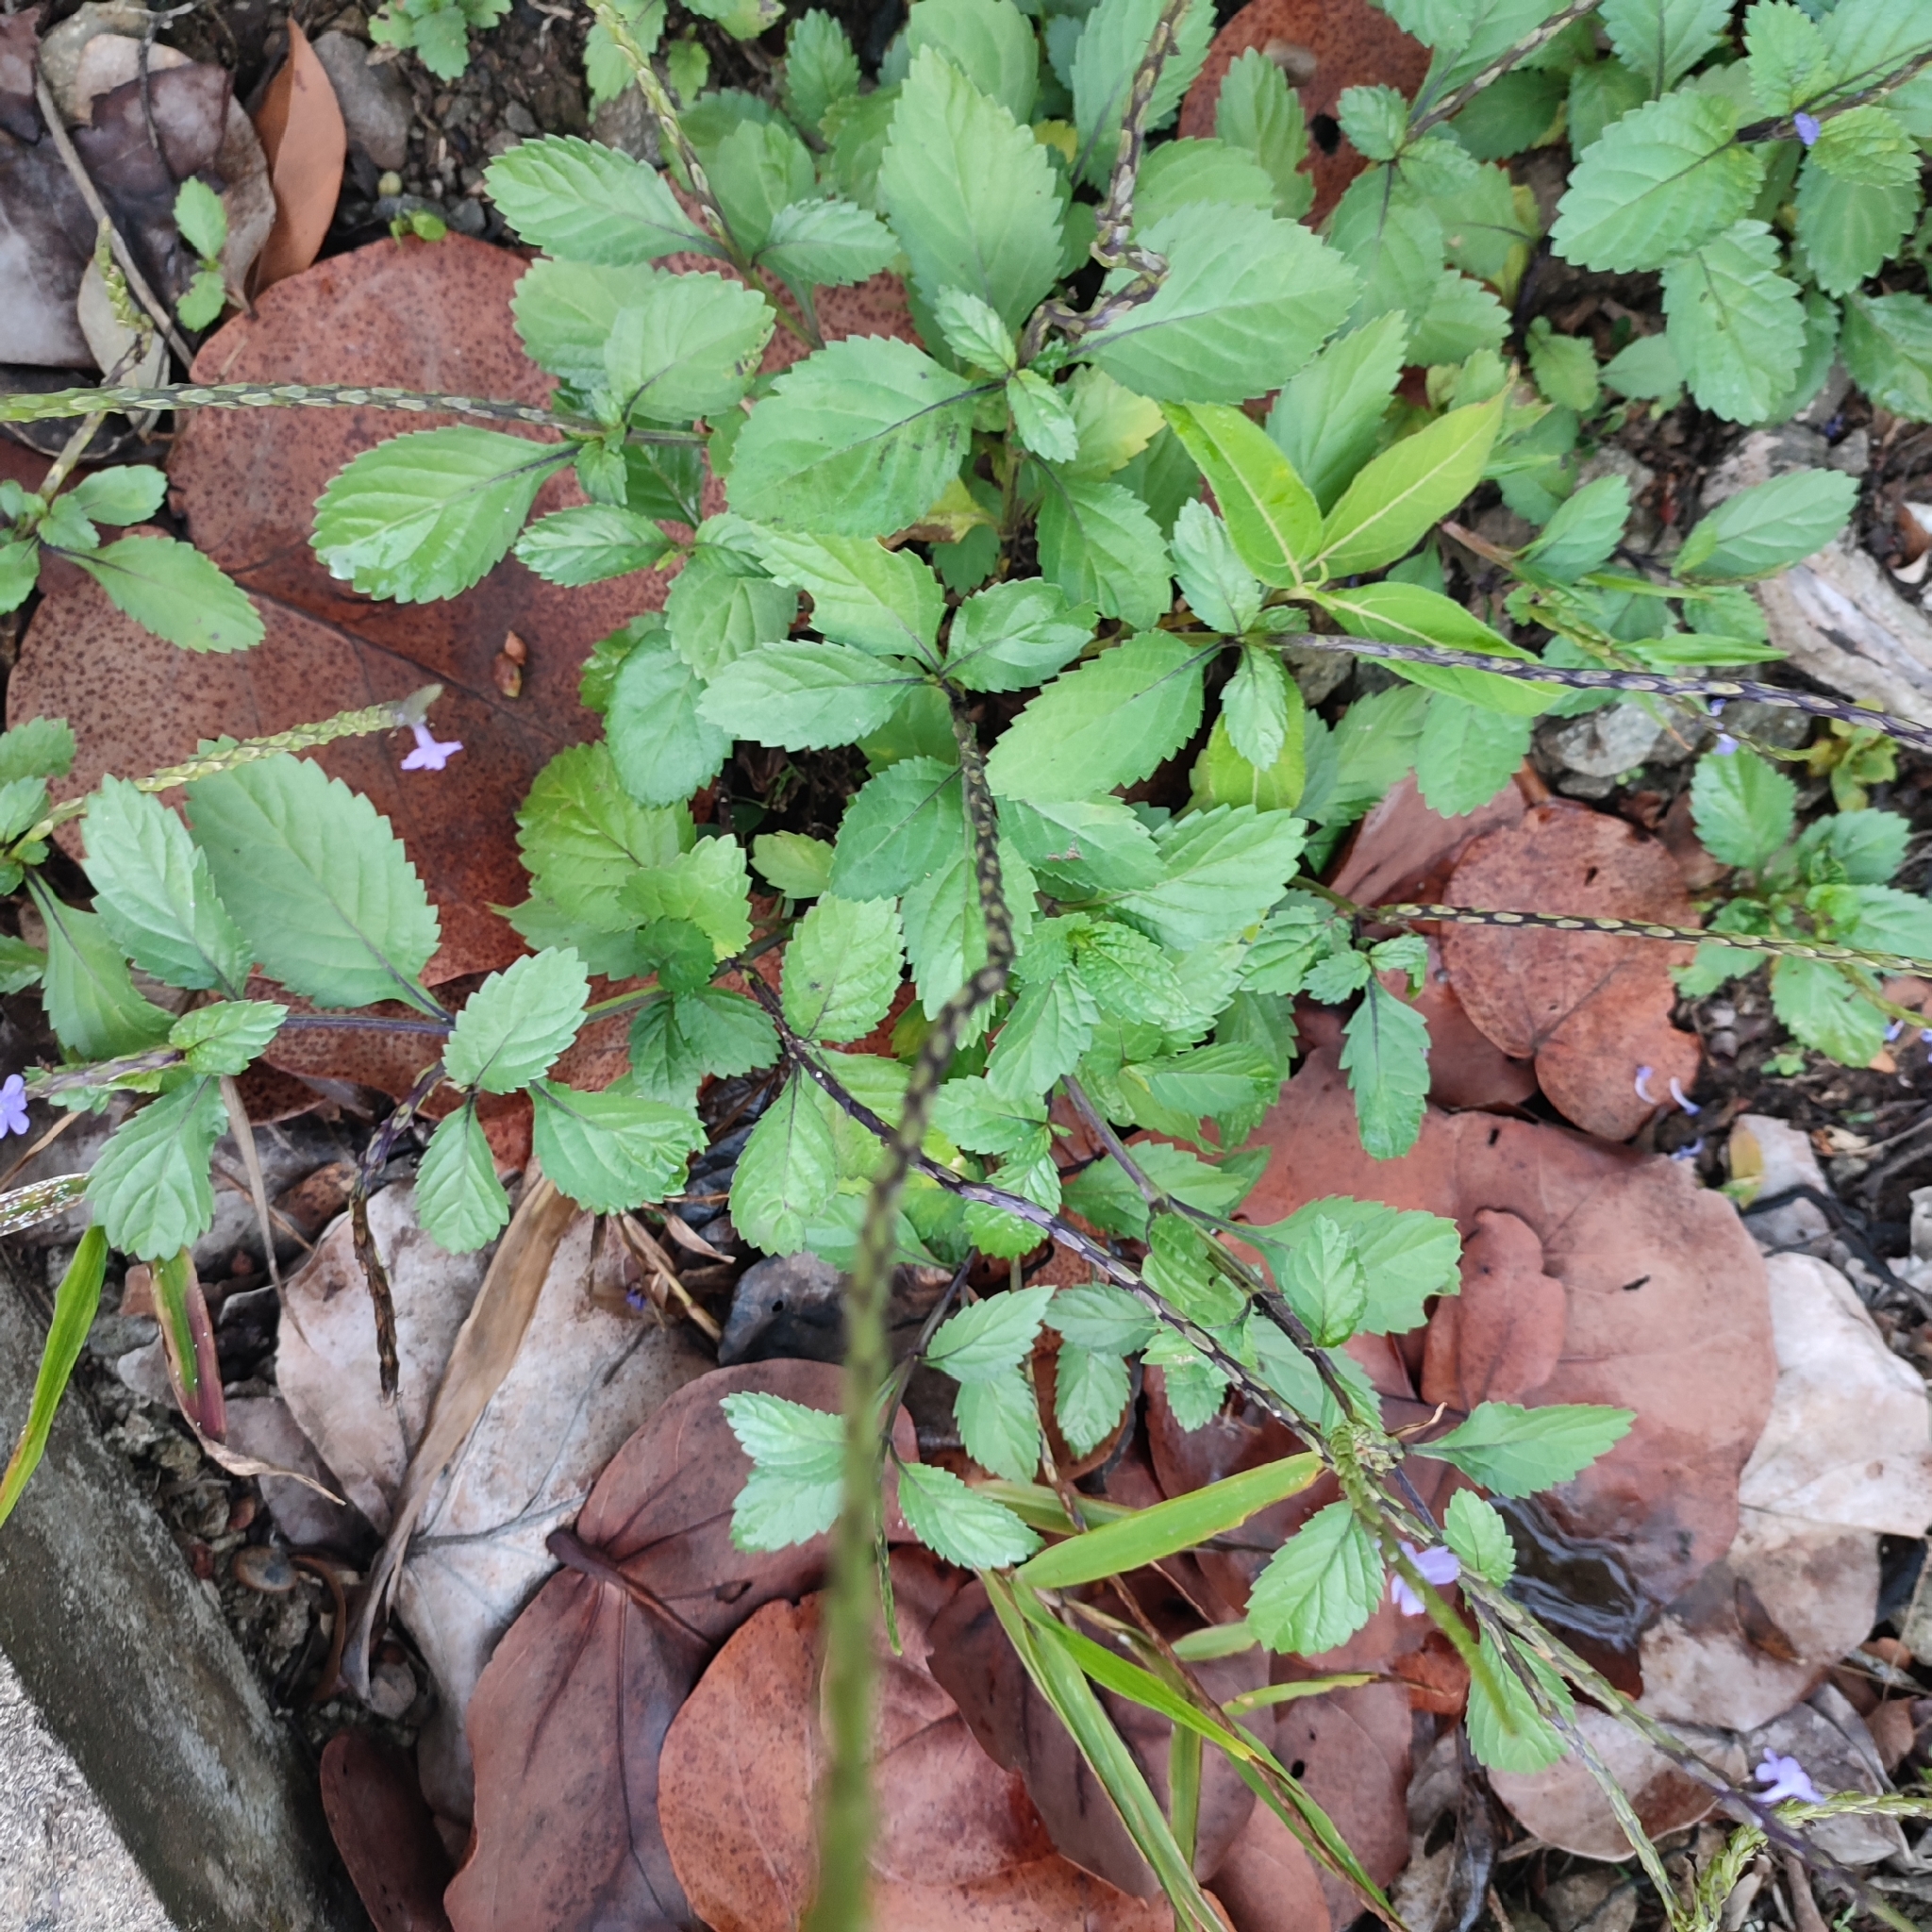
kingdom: Plantae
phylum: Tracheophyta
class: Magnoliopsida
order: Lamiales
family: Verbenaceae
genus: Stachytarpheta
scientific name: Stachytarpheta jamaicensis
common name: Light-blue snakeweed
